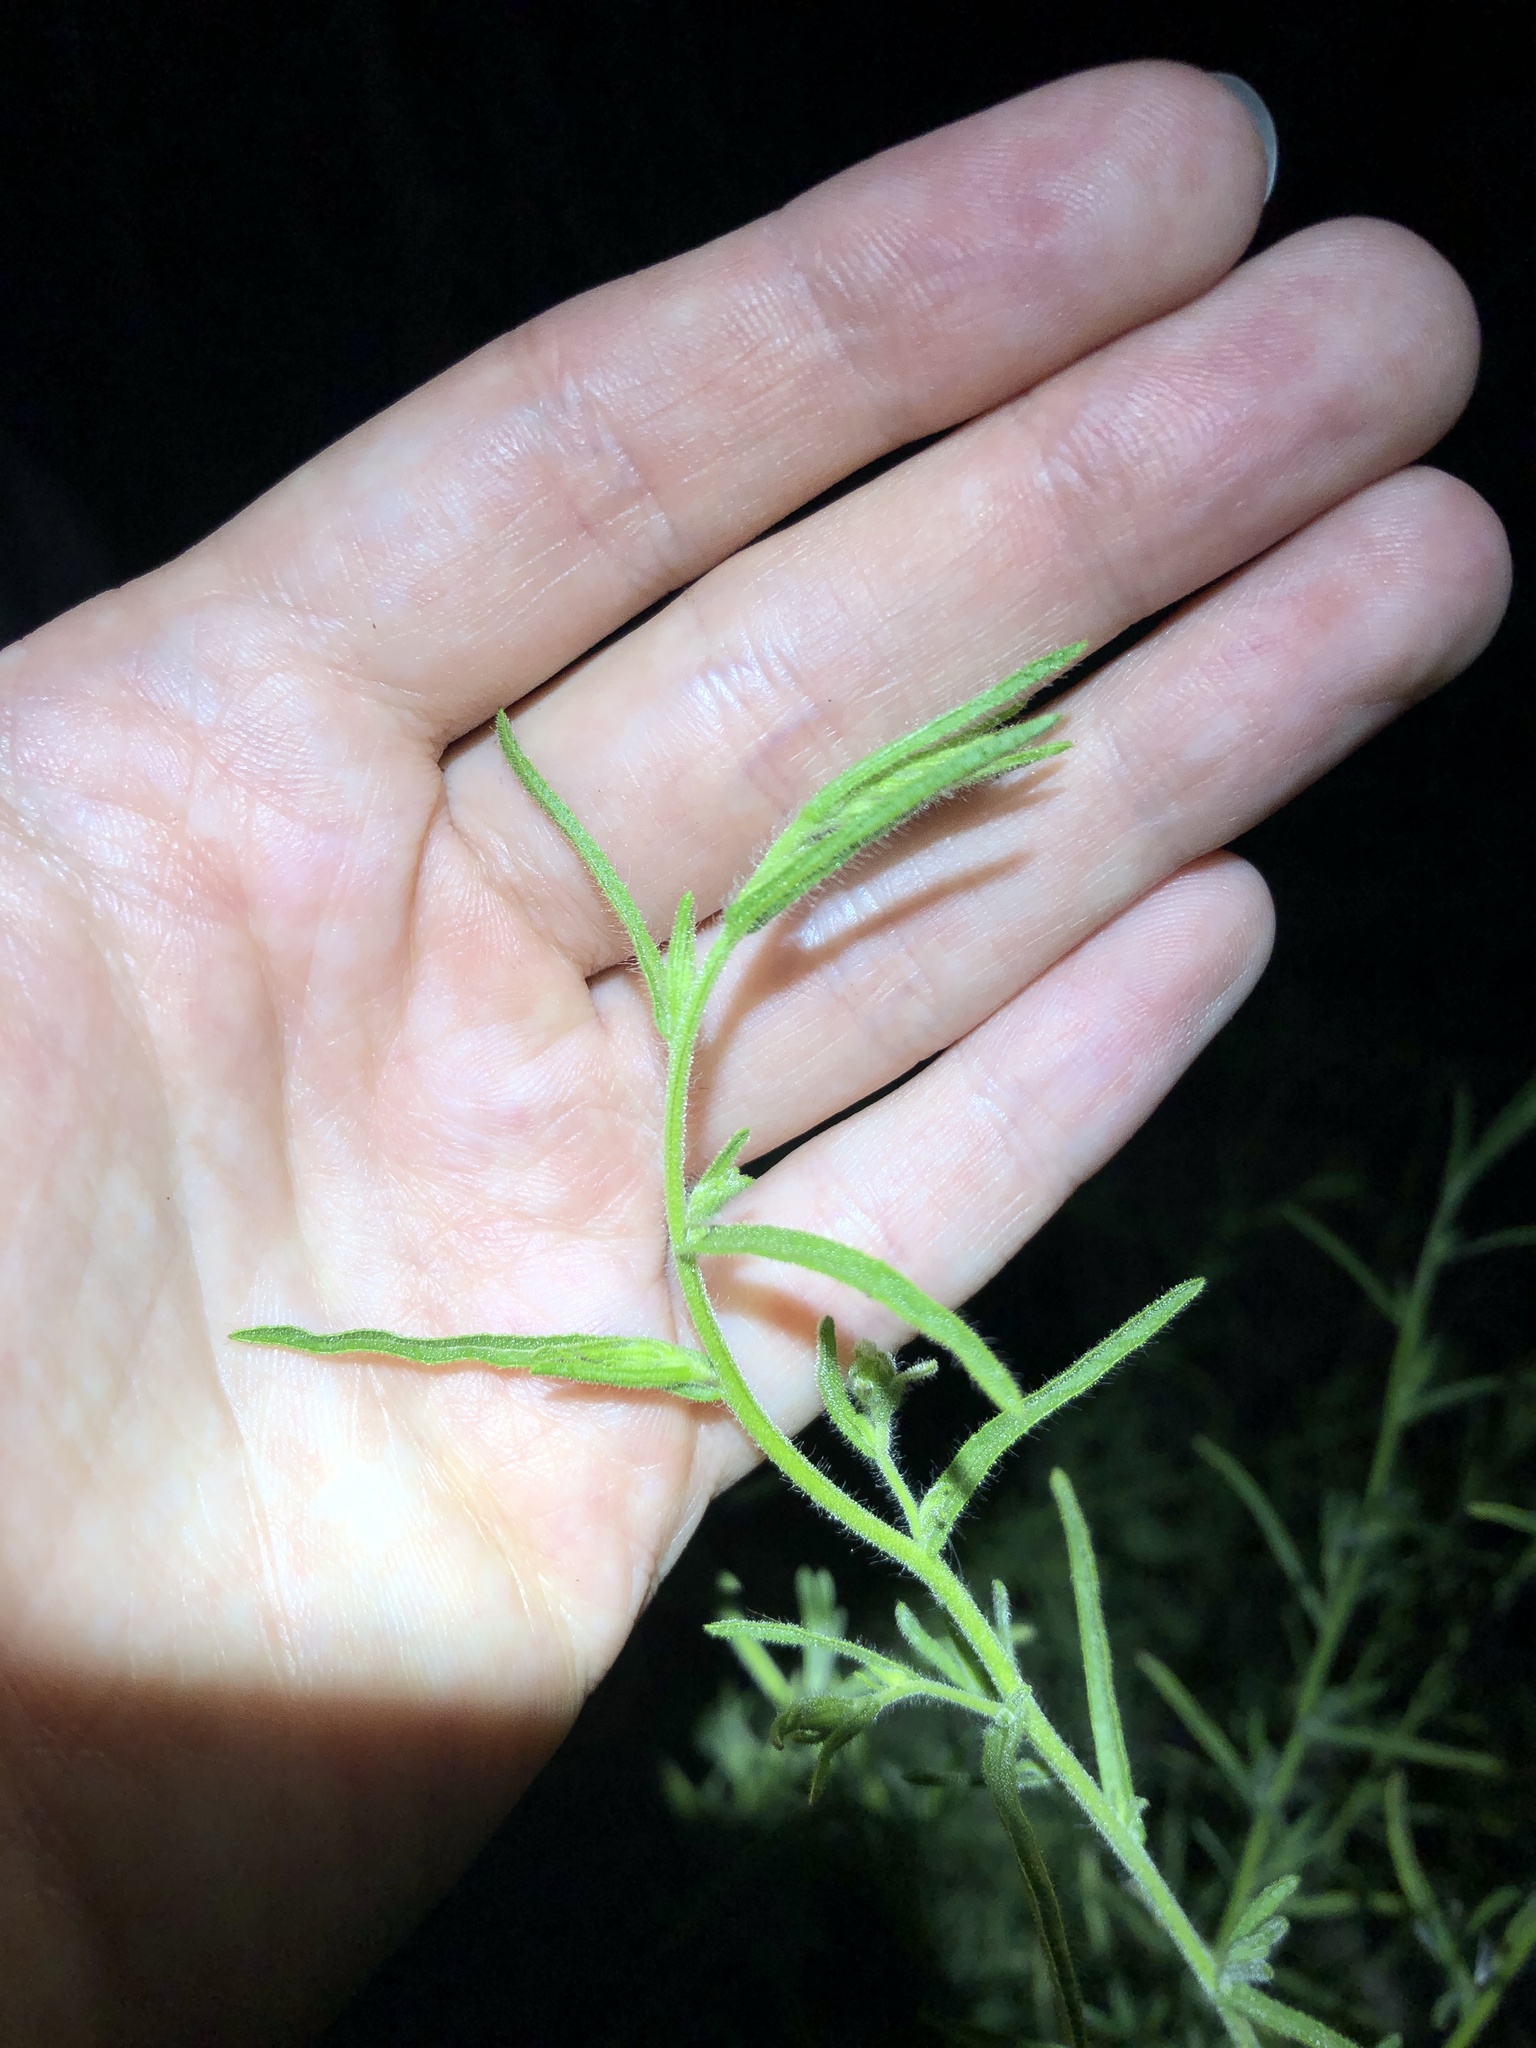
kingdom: Plantae
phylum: Tracheophyta
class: Magnoliopsida
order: Asterales
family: Asteraceae
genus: Dittrichia
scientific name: Dittrichia graveolens
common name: Stinking fleabane
